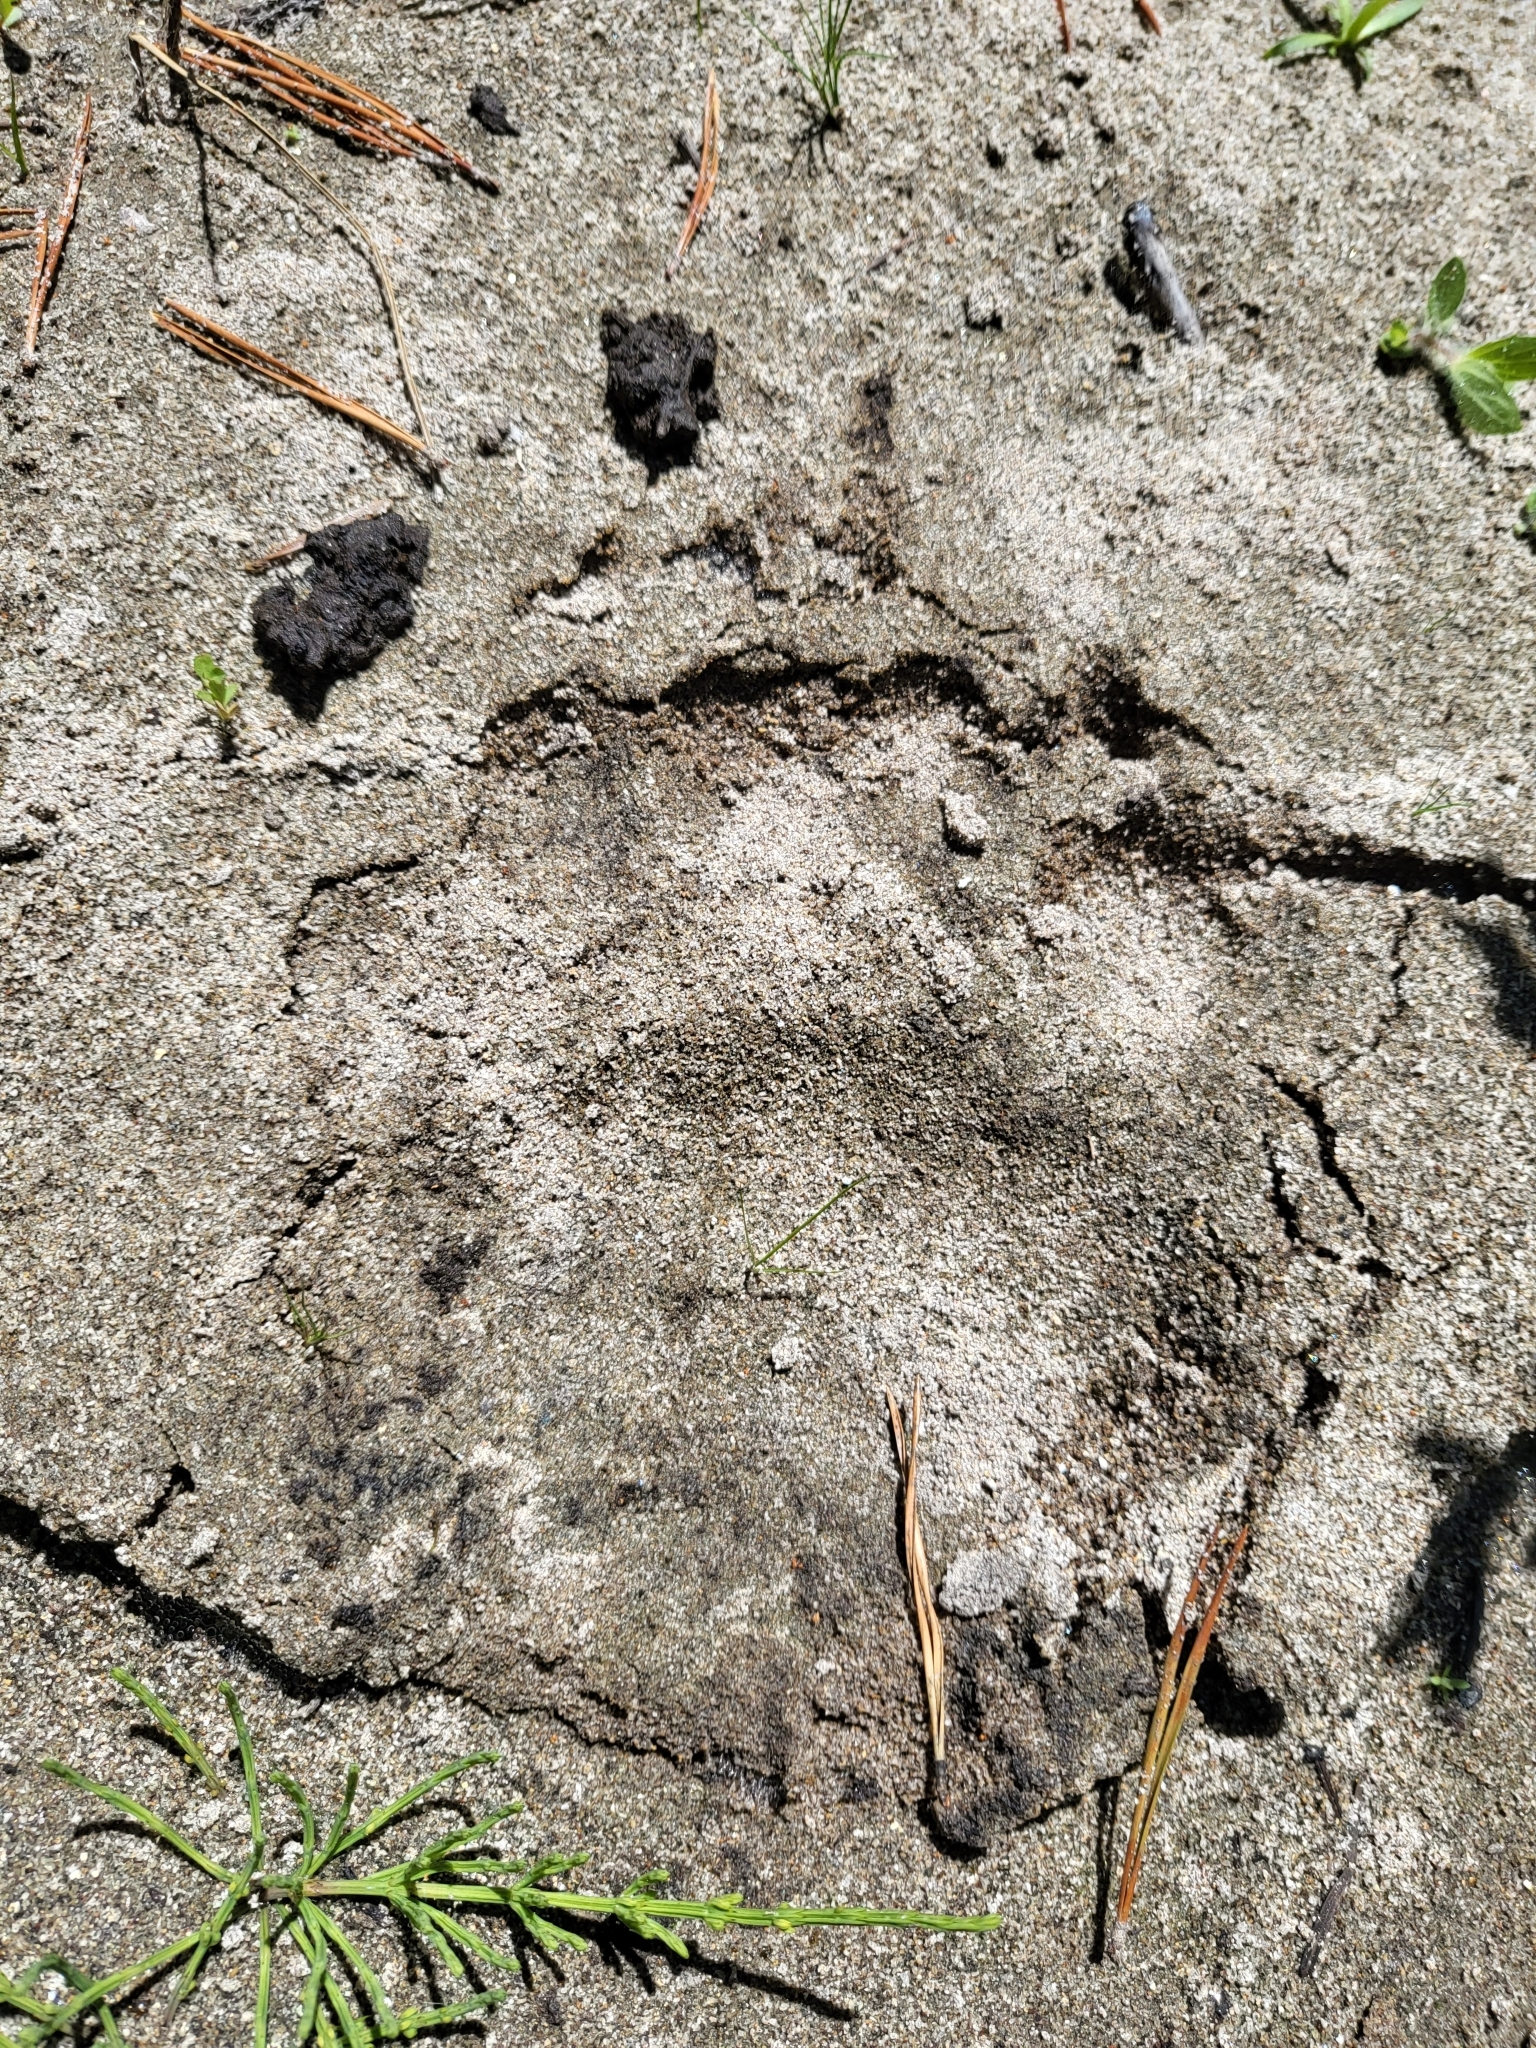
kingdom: Animalia
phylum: Chordata
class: Mammalia
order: Carnivora
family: Ursidae
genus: Ursus
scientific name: Ursus americanus
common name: American black bear
